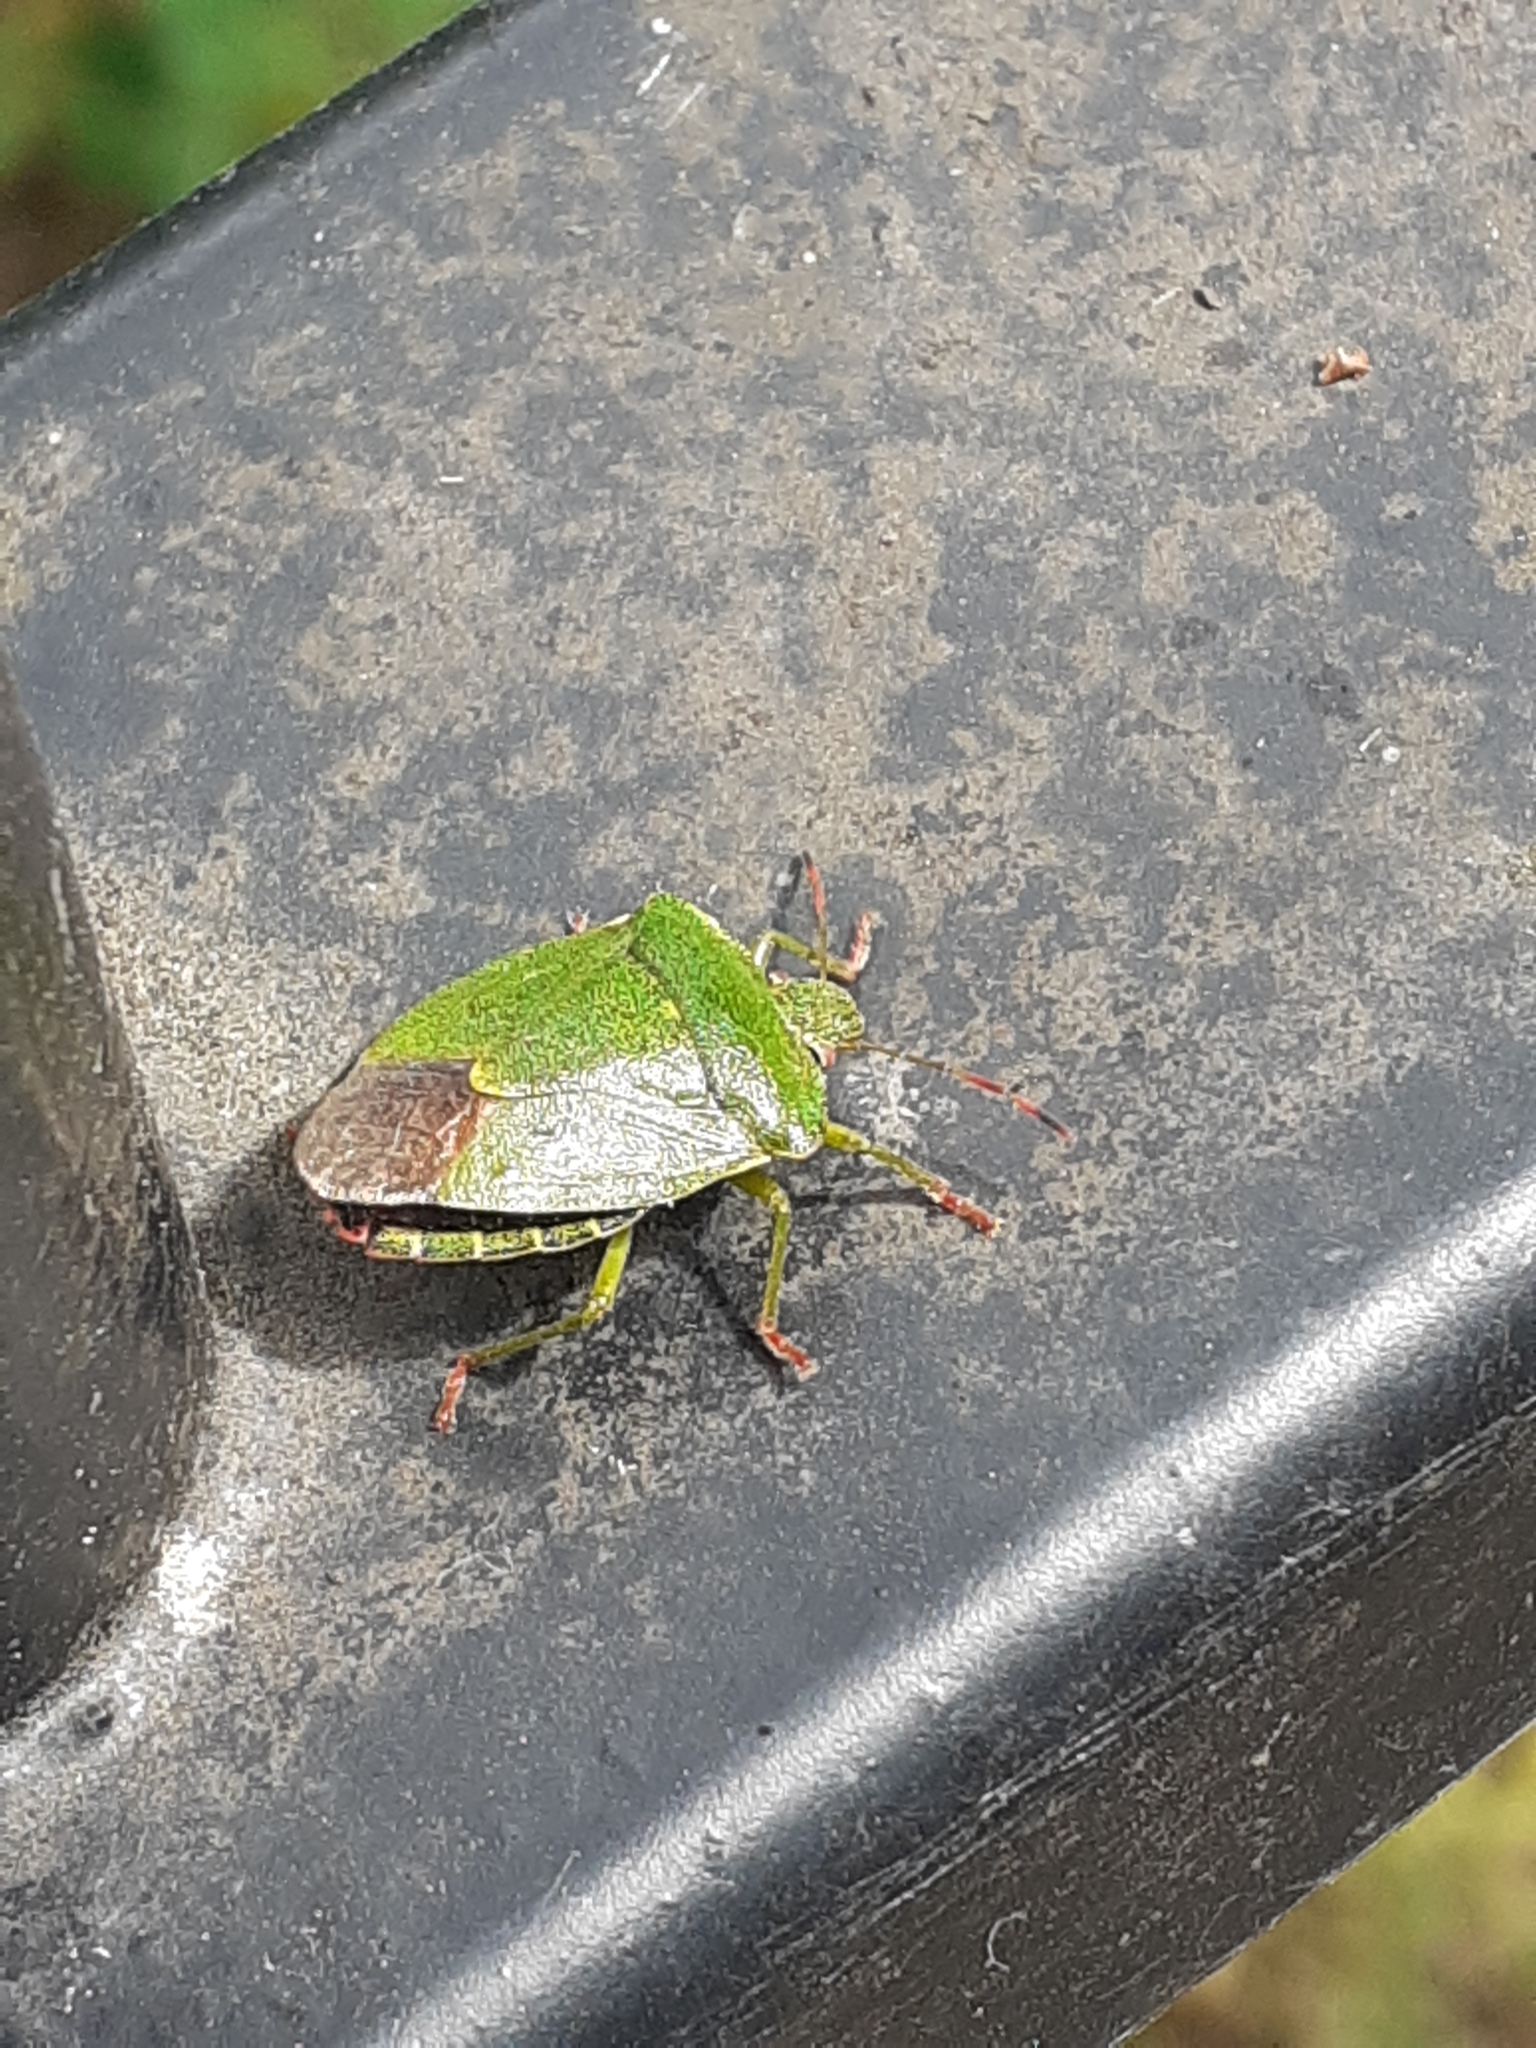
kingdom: Animalia
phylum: Arthropoda
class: Insecta
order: Hemiptera
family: Pentatomidae
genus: Palomena
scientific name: Palomena prasina
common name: Green shieldbug
